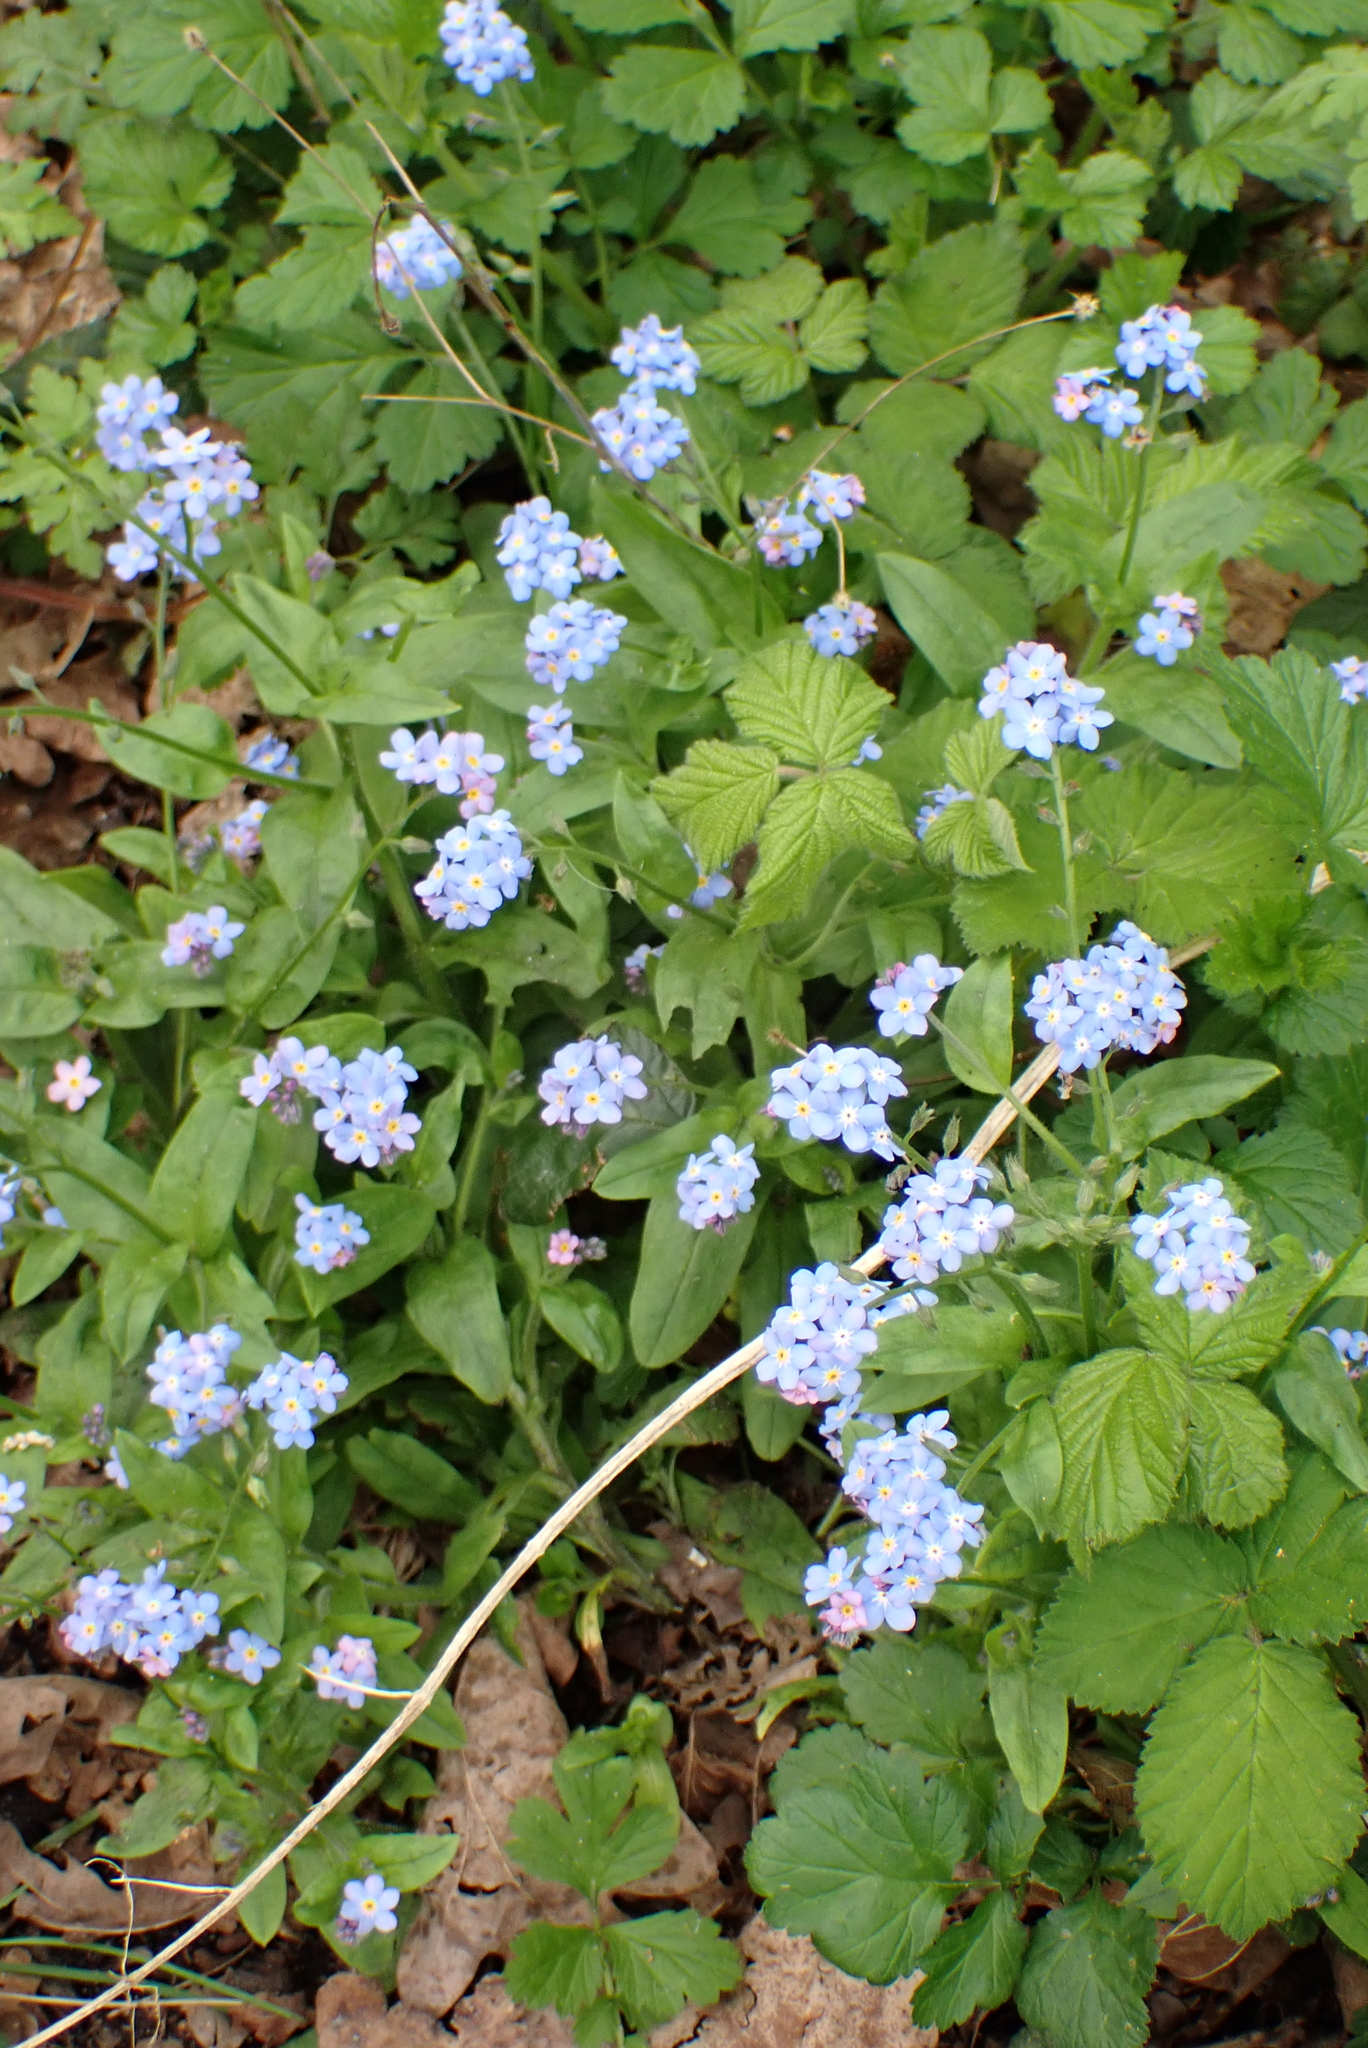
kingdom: Plantae
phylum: Tracheophyta
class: Magnoliopsida
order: Boraginales
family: Boraginaceae
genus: Myosotis
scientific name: Myosotis sylvatica
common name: Wood forget-me-not
